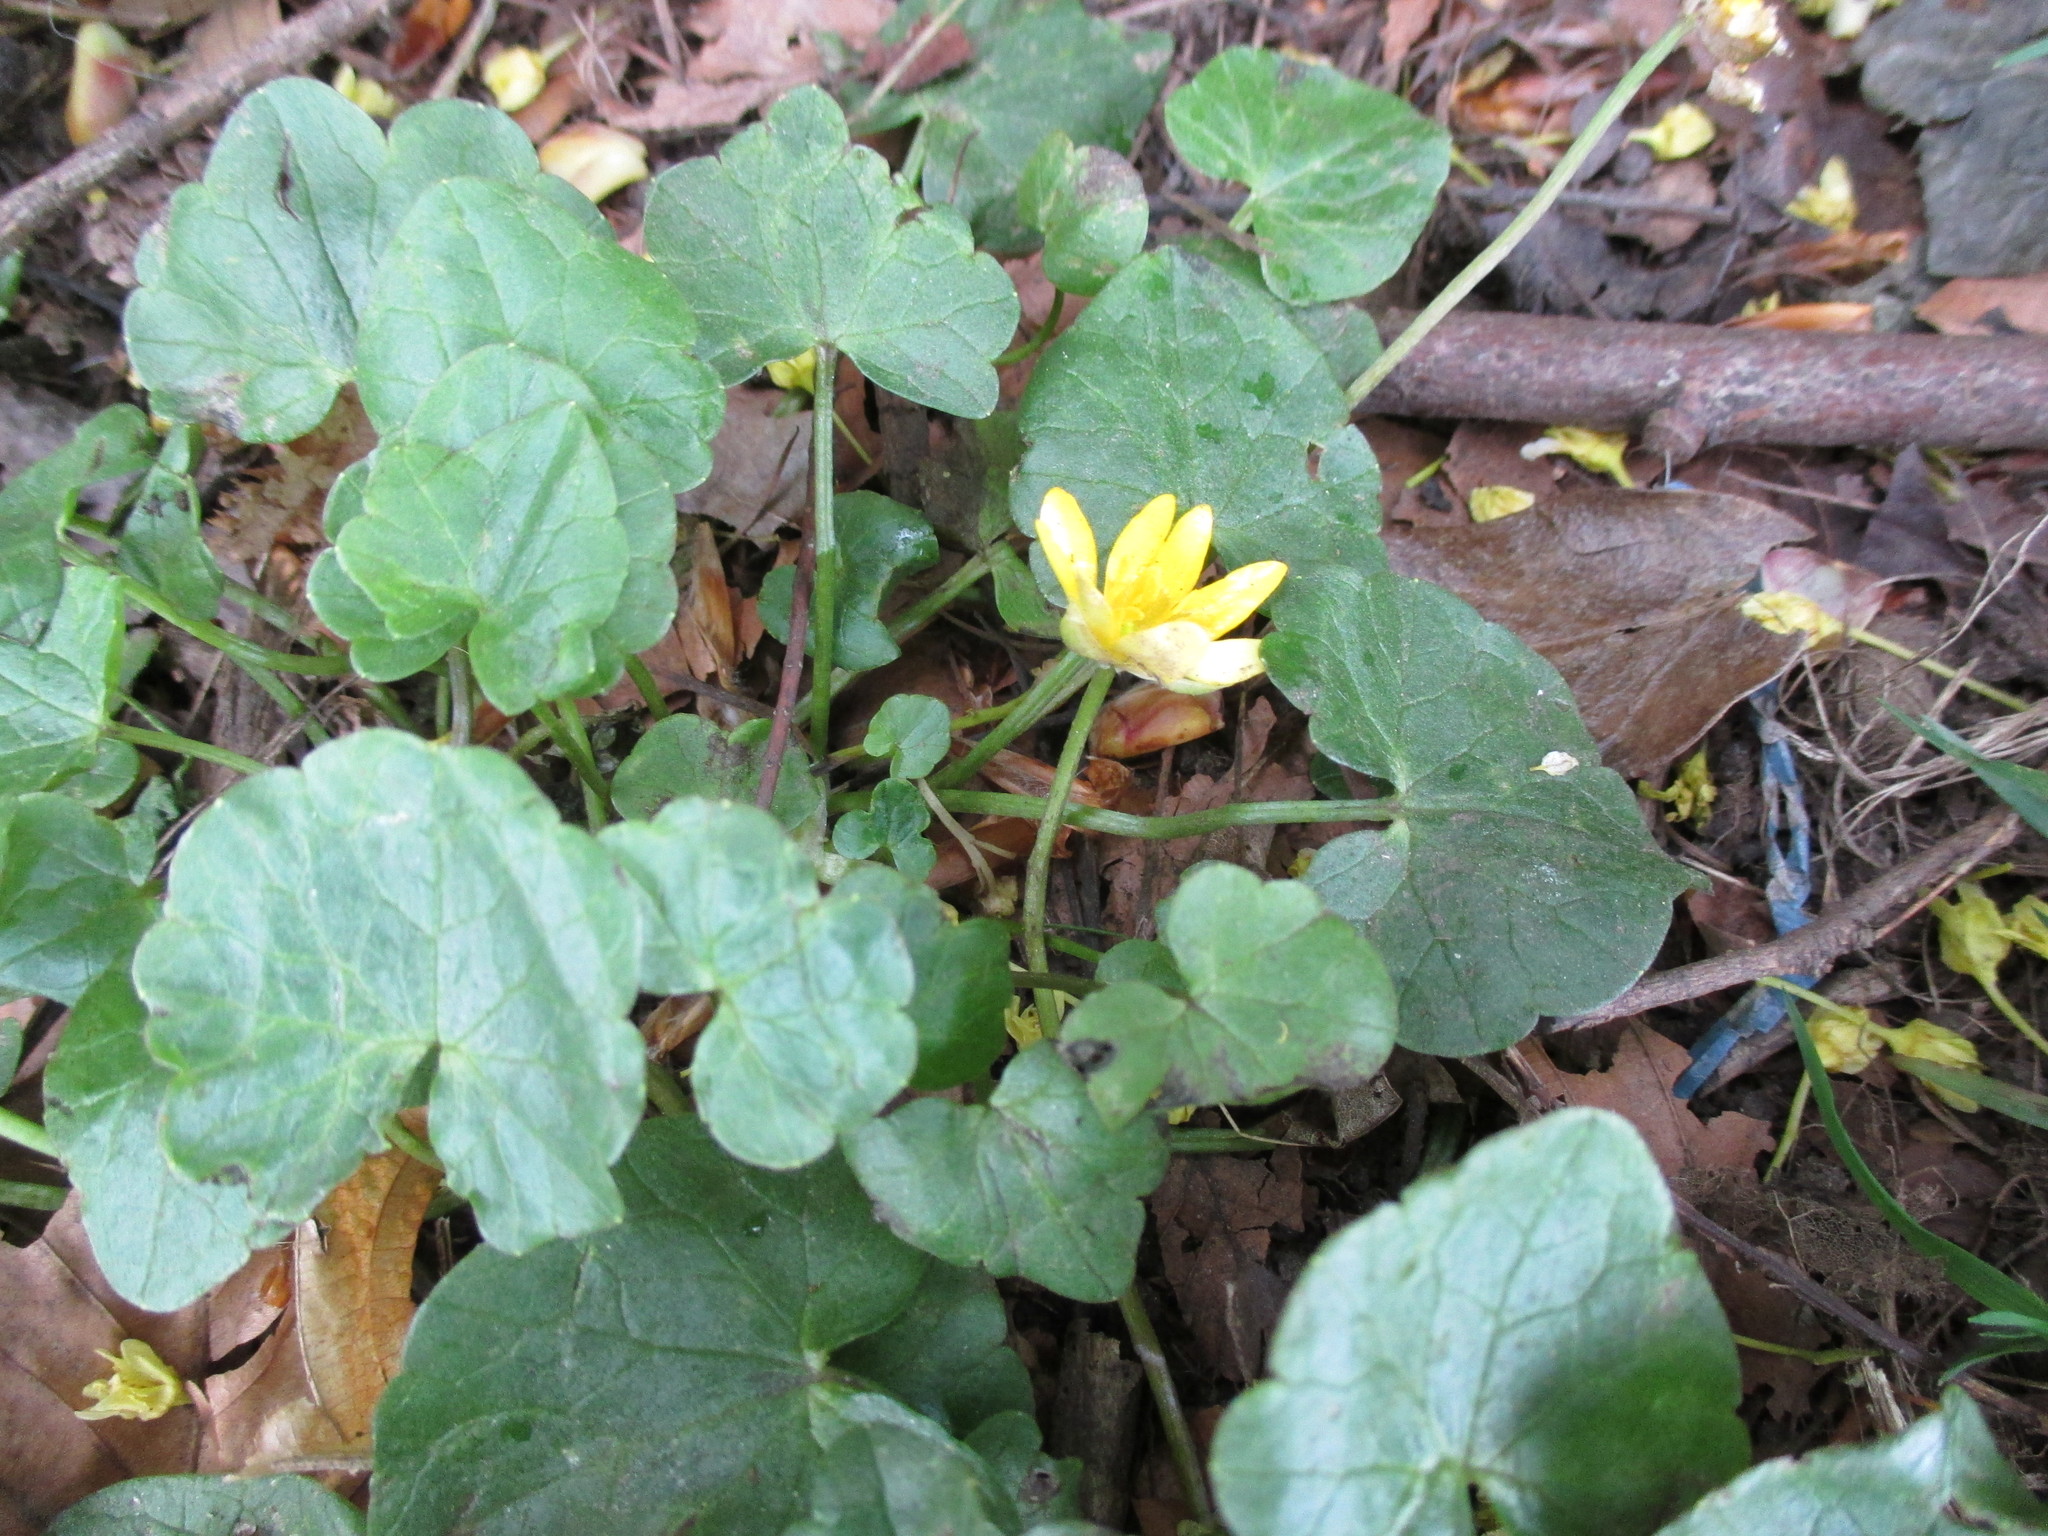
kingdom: Plantae
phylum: Tracheophyta
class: Magnoliopsida
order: Ranunculales
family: Ranunculaceae
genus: Ficaria
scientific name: Ficaria verna
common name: Lesser celandine
